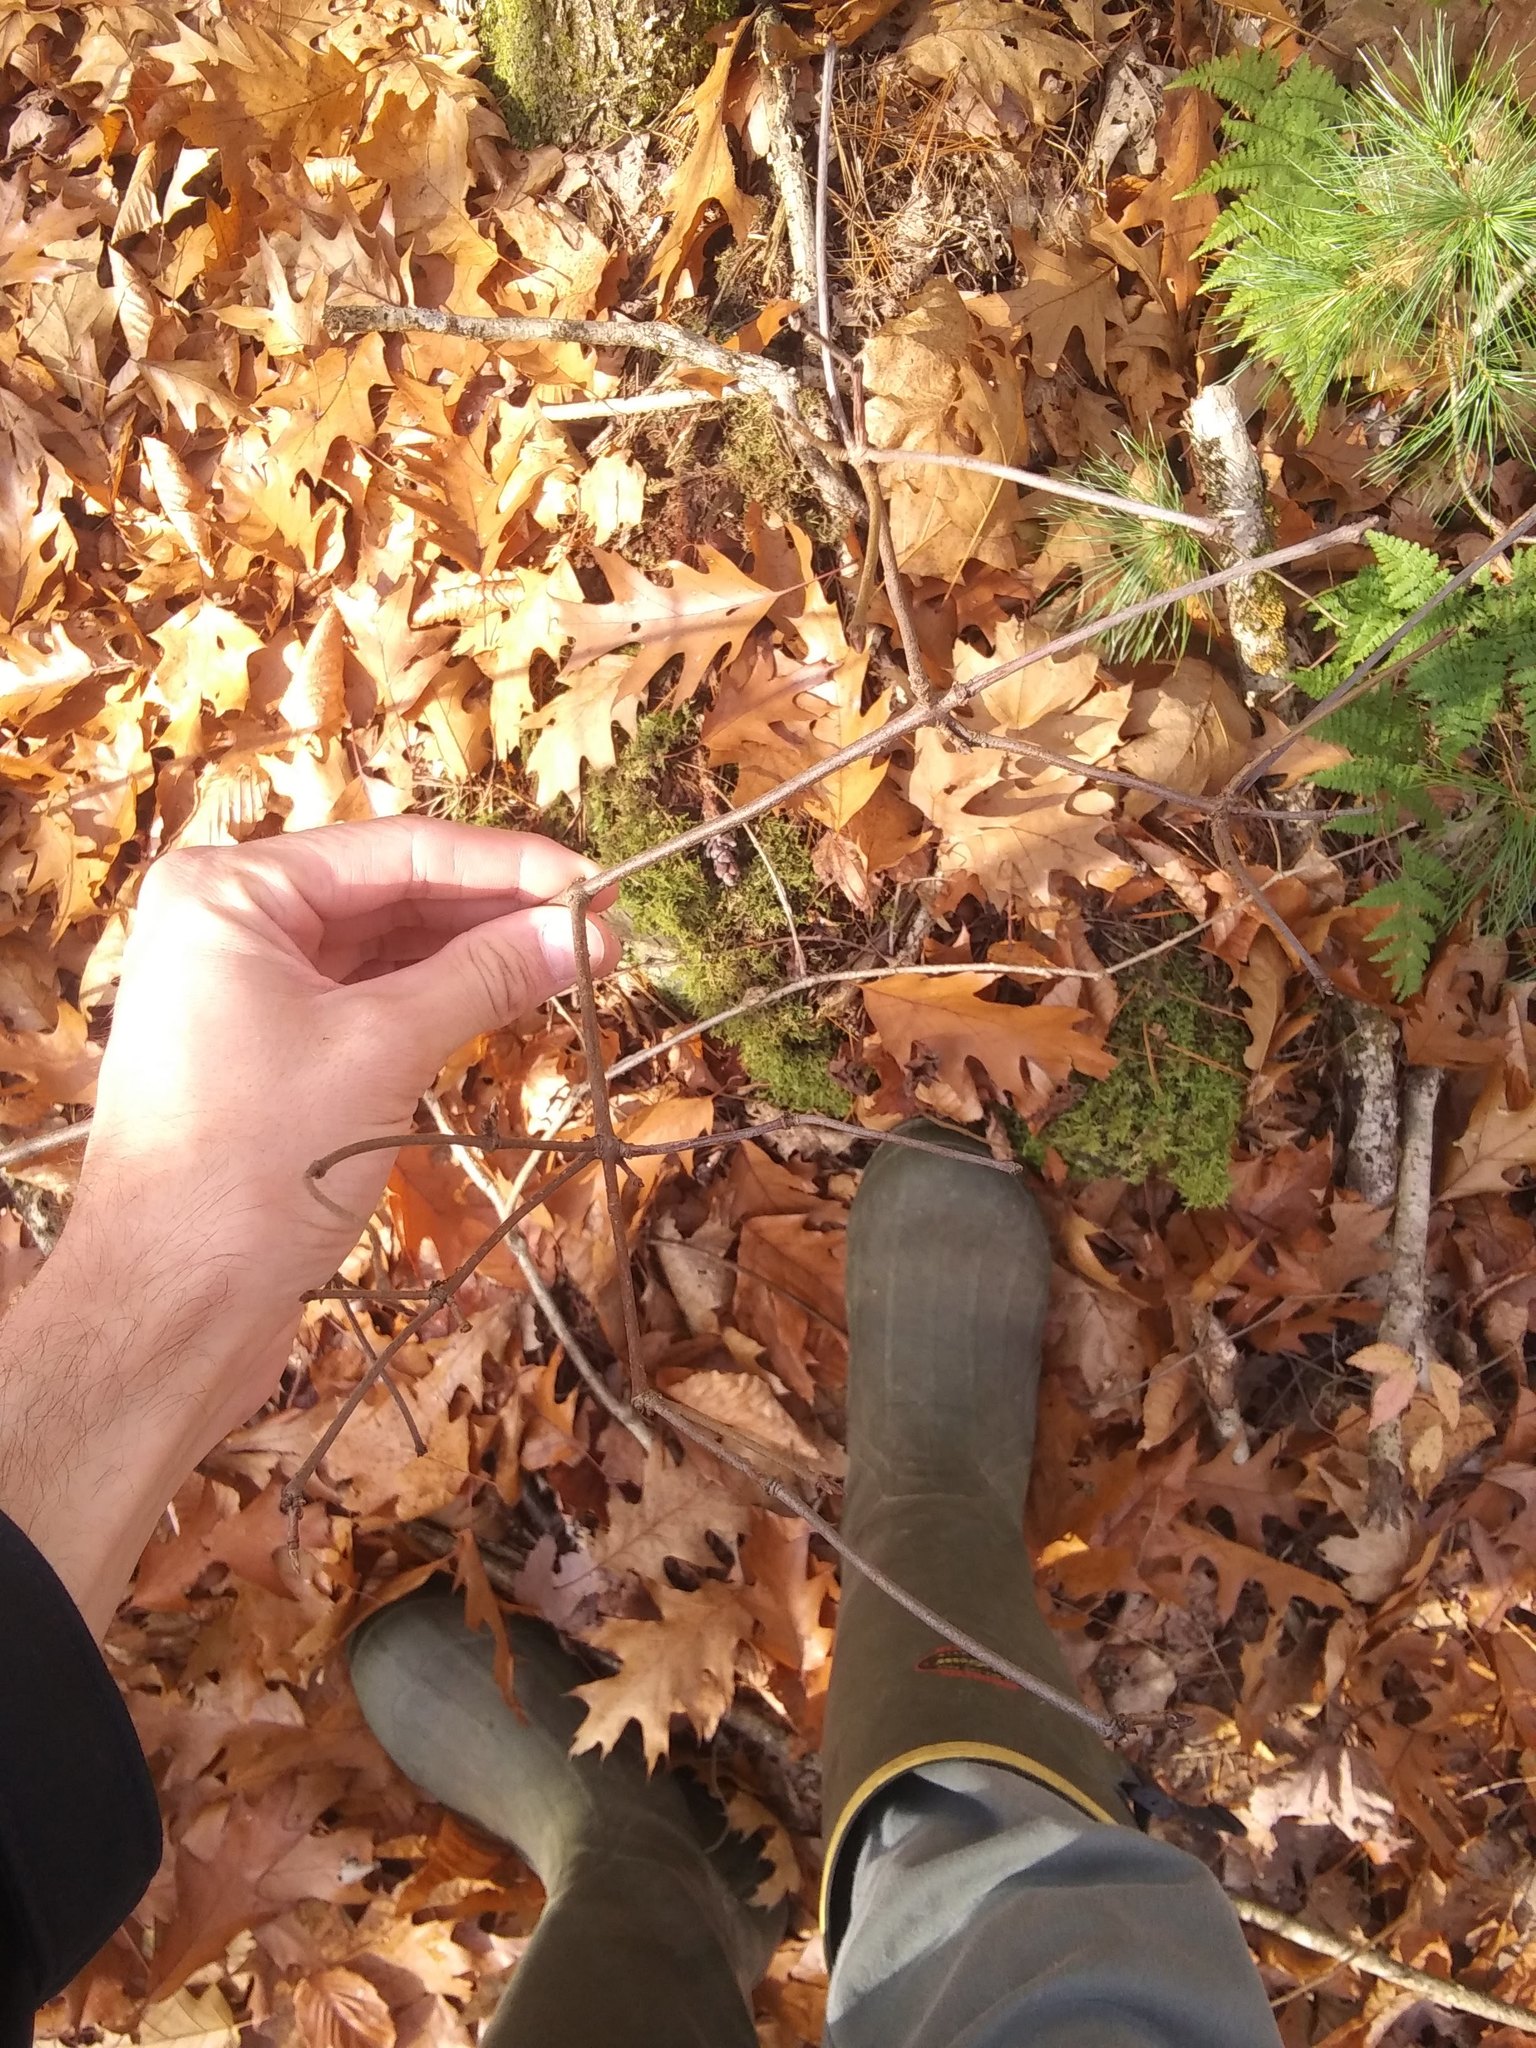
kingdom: Plantae
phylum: Tracheophyta
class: Magnoliopsida
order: Dipsacales
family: Viburnaceae
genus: Viburnum
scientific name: Viburnum acerifolium
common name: Dockmackie
